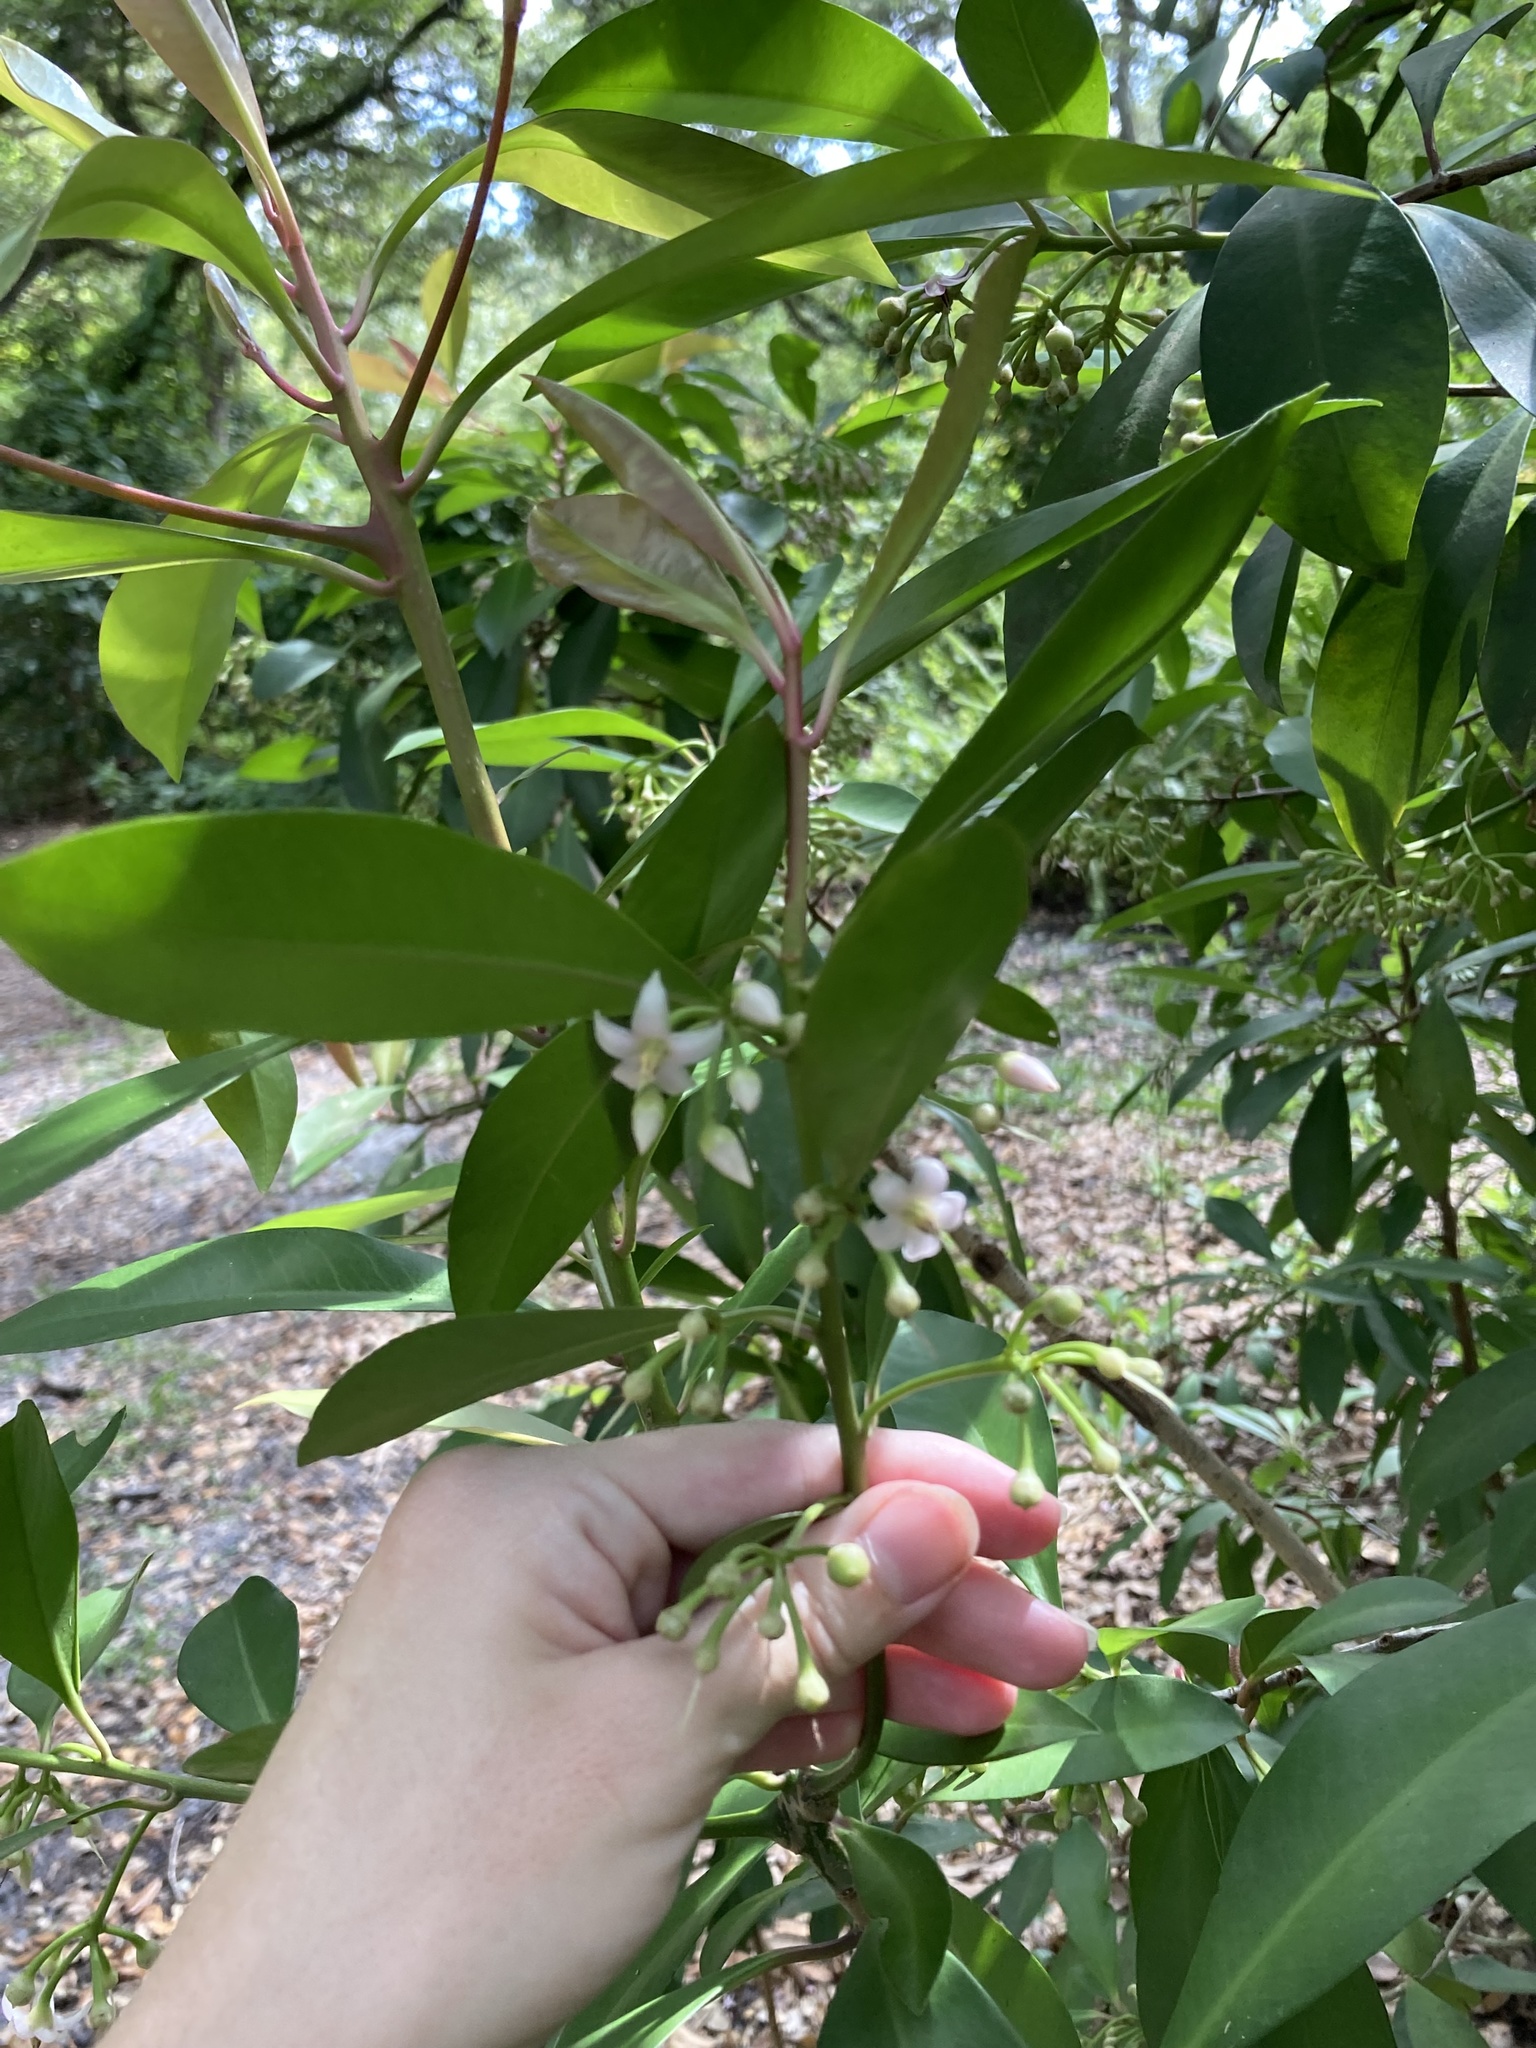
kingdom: Plantae
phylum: Tracheophyta
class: Magnoliopsida
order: Ericales
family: Primulaceae
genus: Ardisia
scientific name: Ardisia elliptica
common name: Shoebutton
